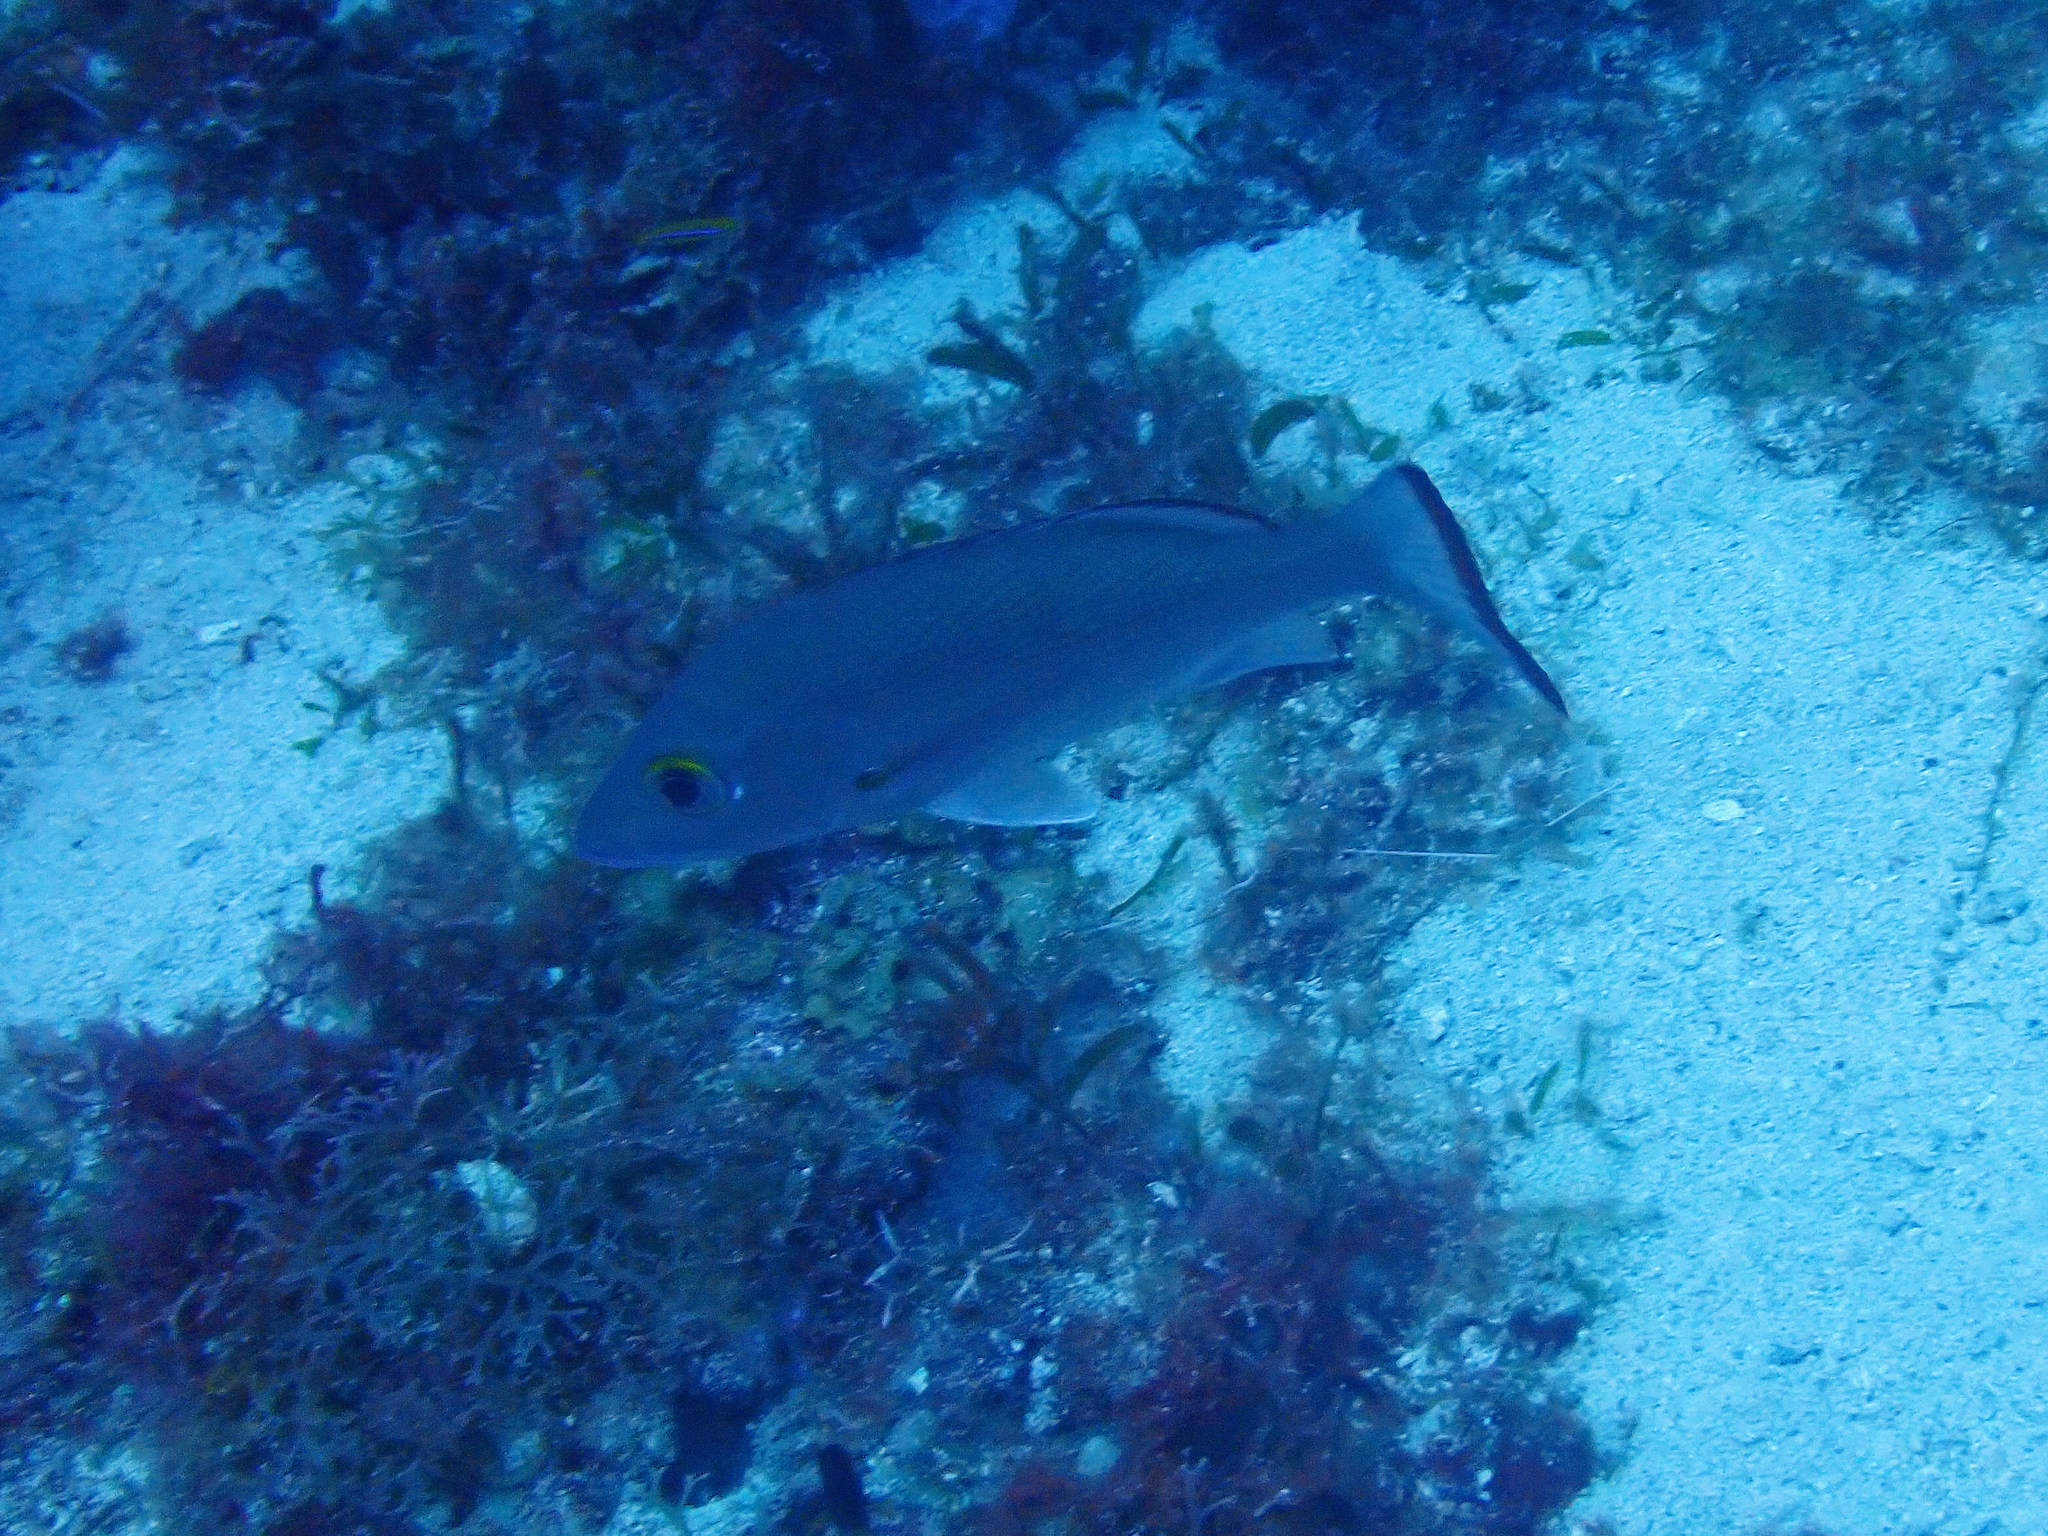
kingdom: Animalia
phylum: Chordata
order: Perciformes
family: Lutjanidae
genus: Lutjanus
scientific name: Lutjanus mahogoni
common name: Spot snapper
